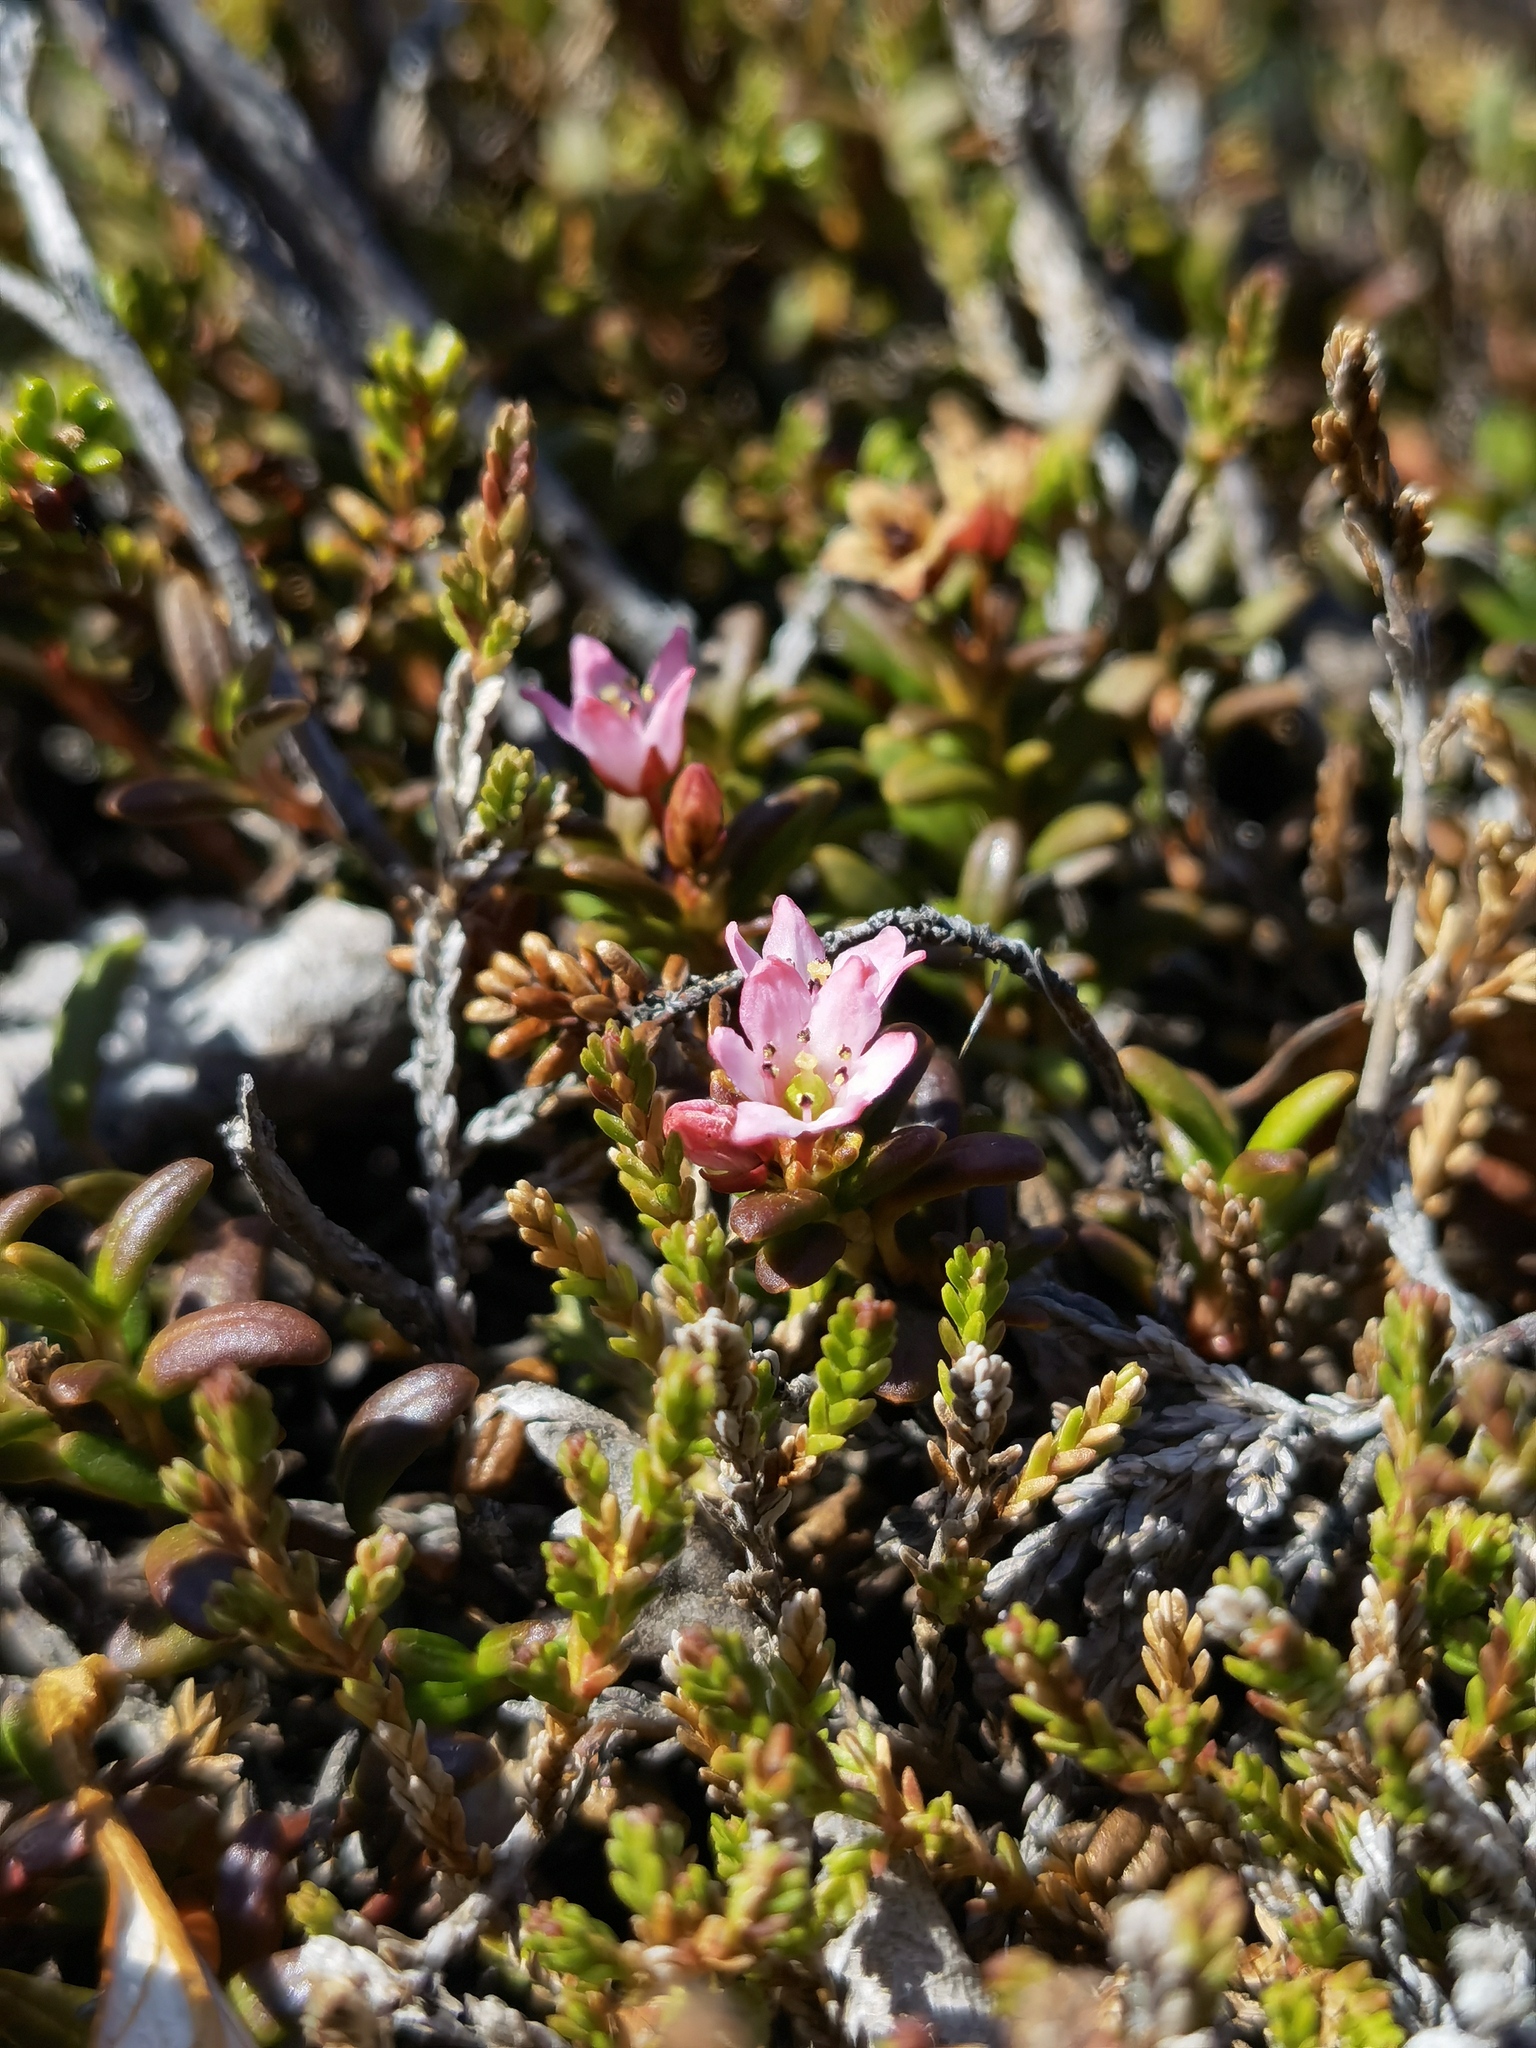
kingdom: Plantae
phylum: Tracheophyta
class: Magnoliopsida
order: Ericales
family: Ericaceae
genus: Kalmia
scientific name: Kalmia procumbens
